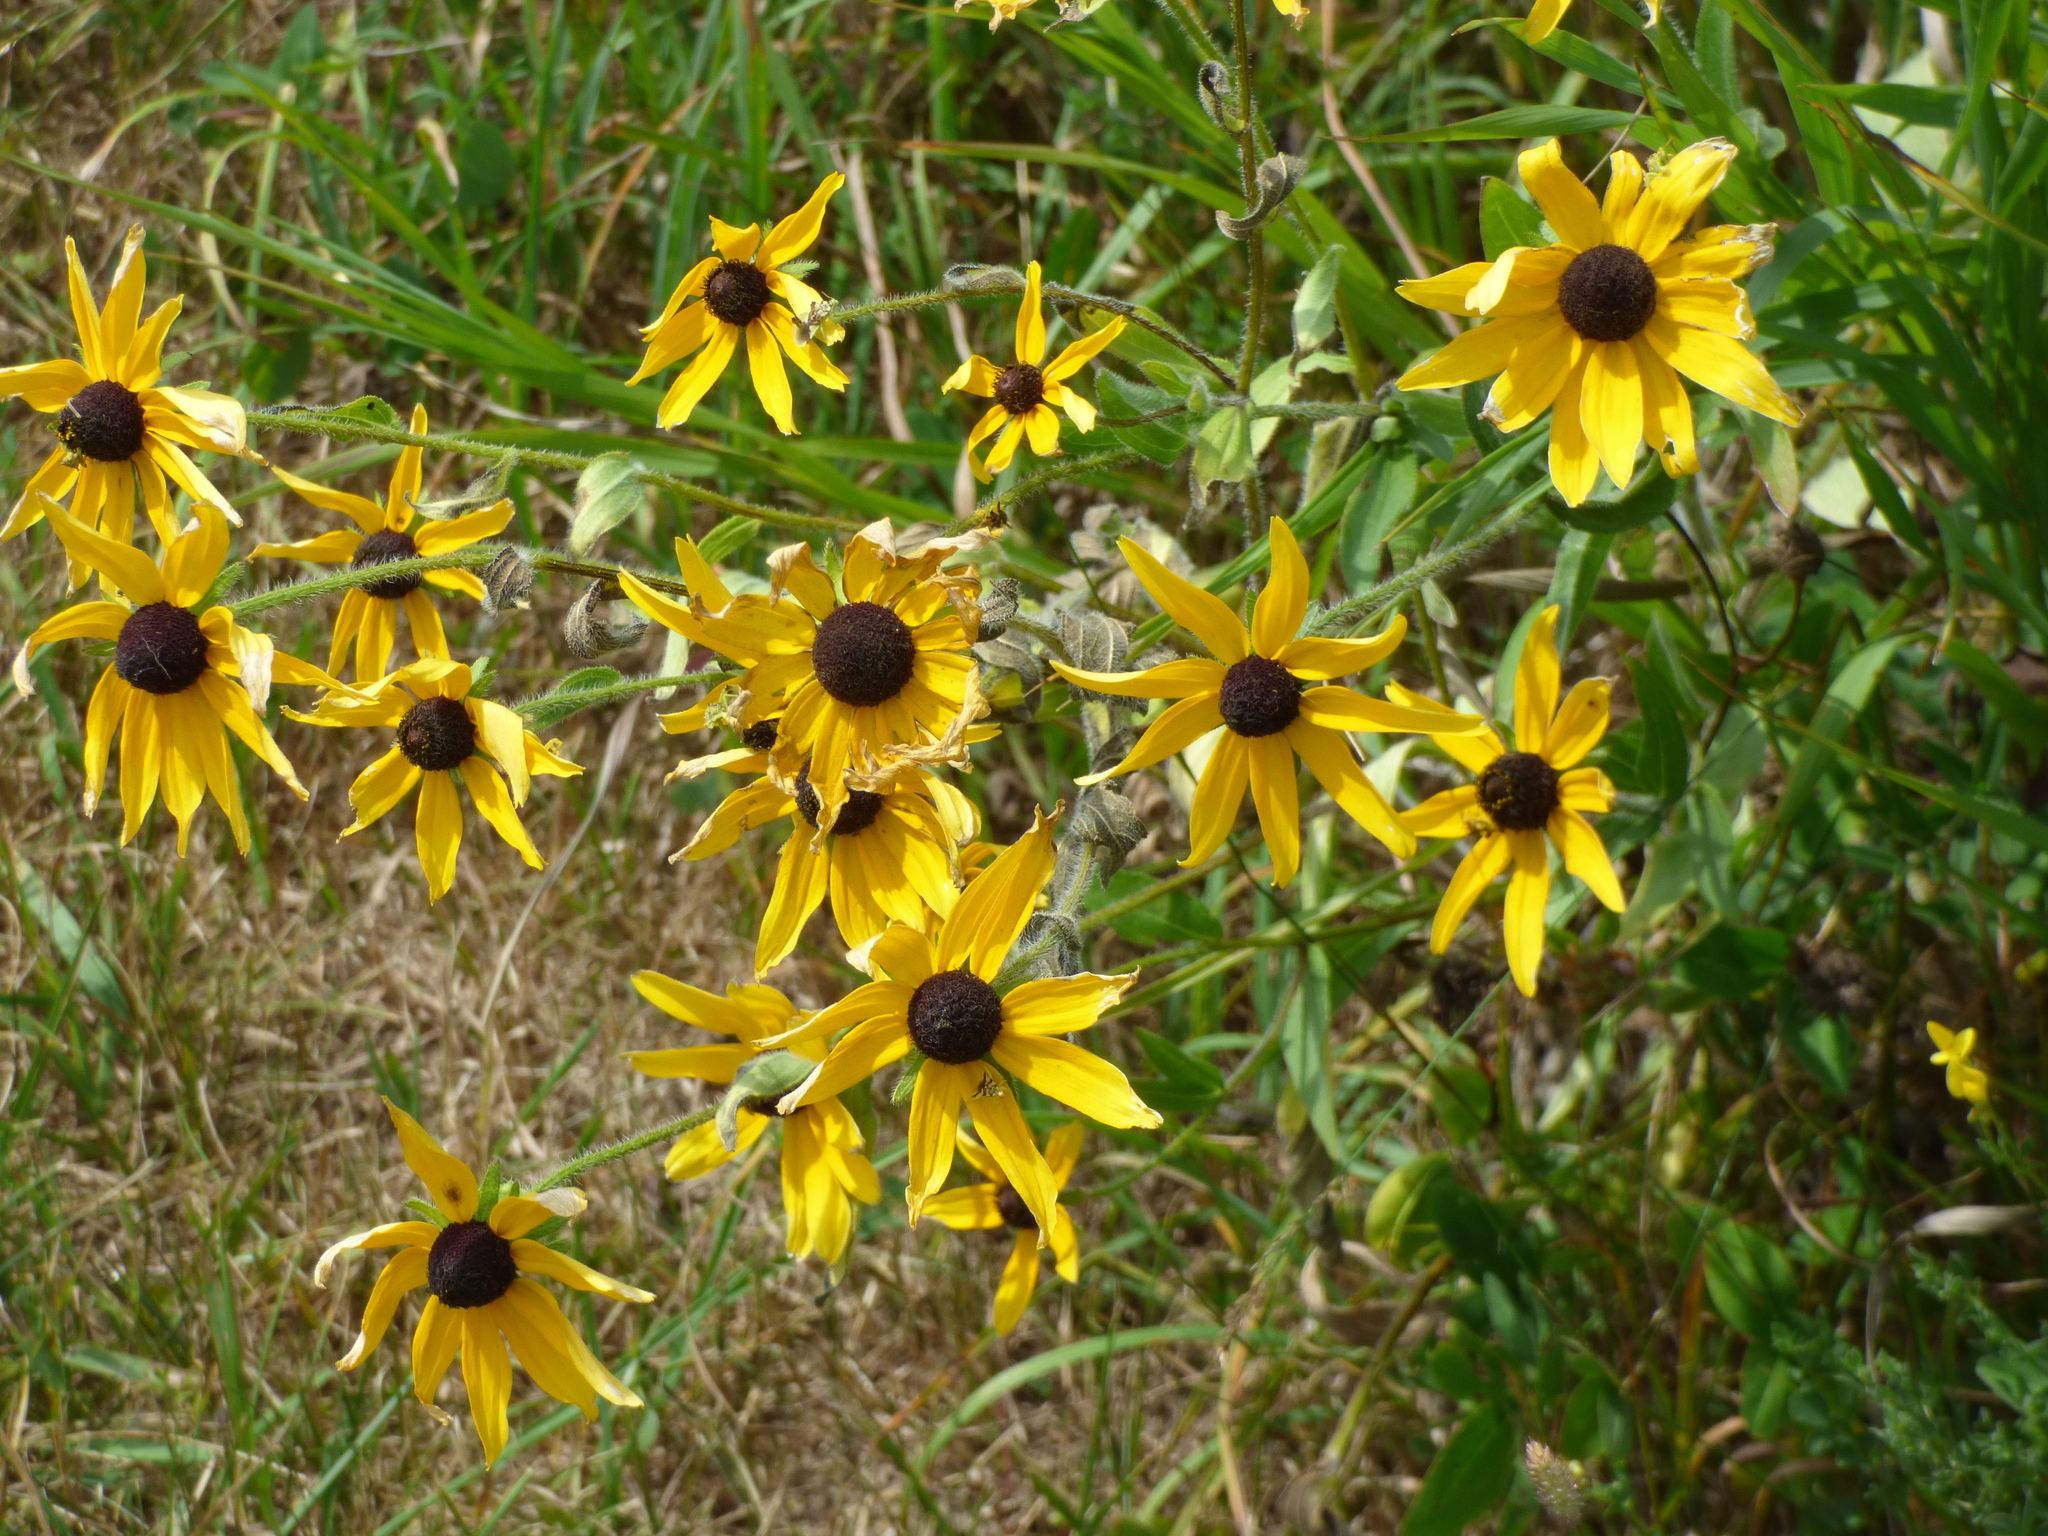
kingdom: Plantae
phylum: Tracheophyta
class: Magnoliopsida
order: Asterales
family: Asteraceae
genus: Rudbeckia
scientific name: Rudbeckia hirta
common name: Black-eyed-susan
